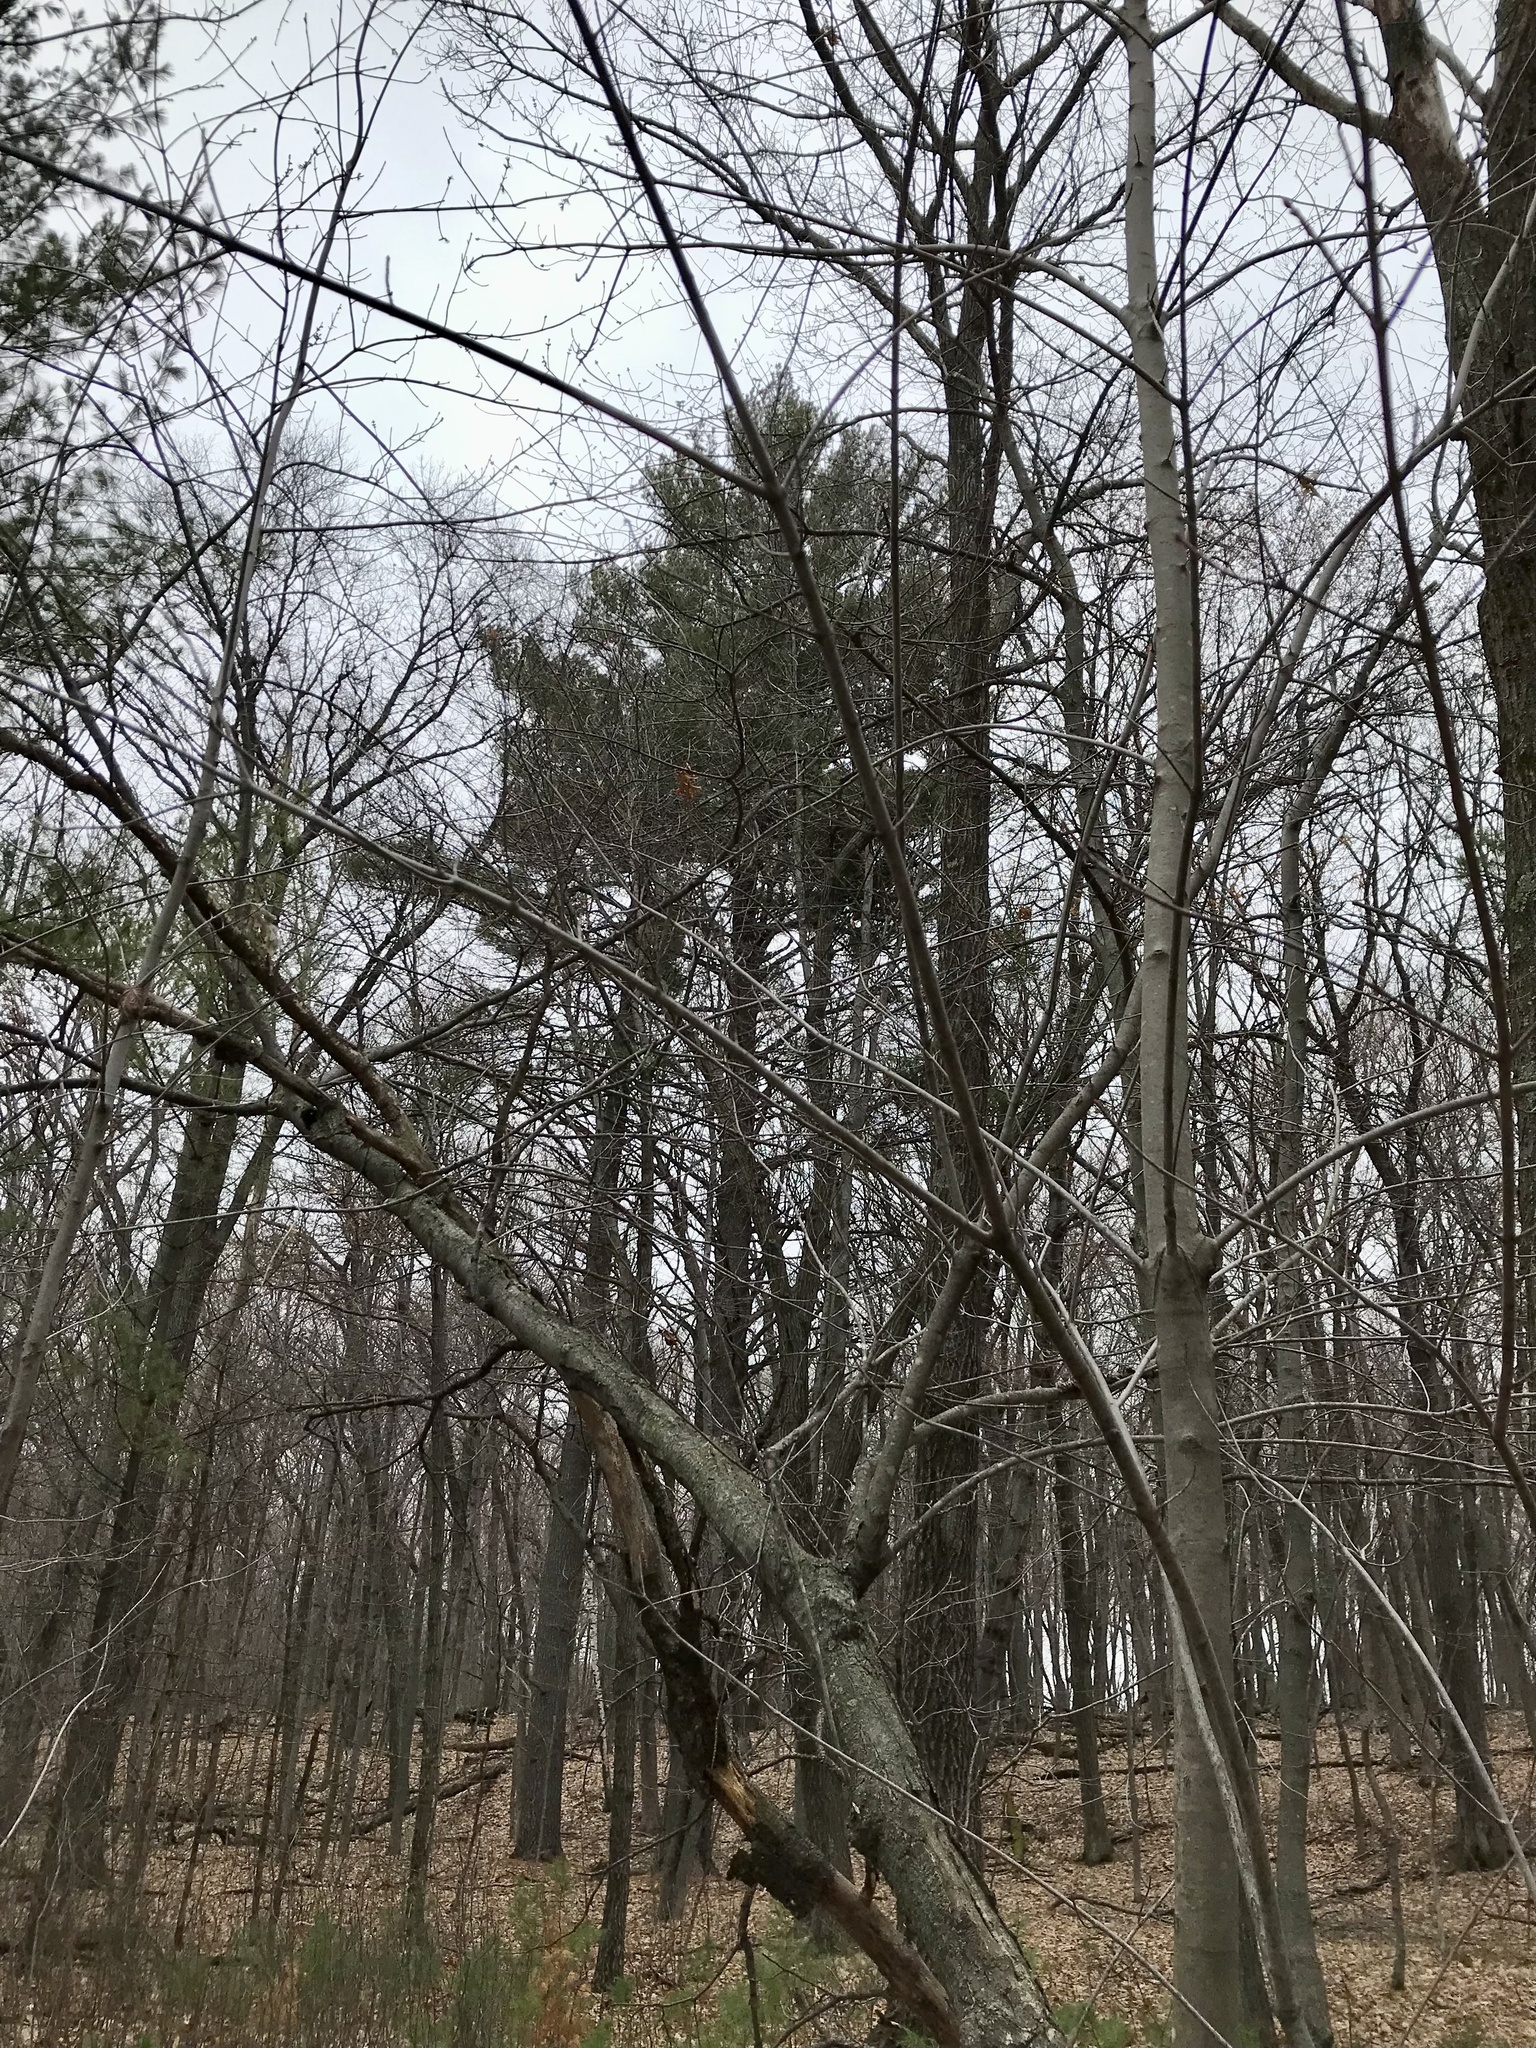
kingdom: Plantae
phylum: Tracheophyta
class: Pinopsida
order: Pinales
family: Pinaceae
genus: Pinus
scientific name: Pinus strobus
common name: Weymouth pine
